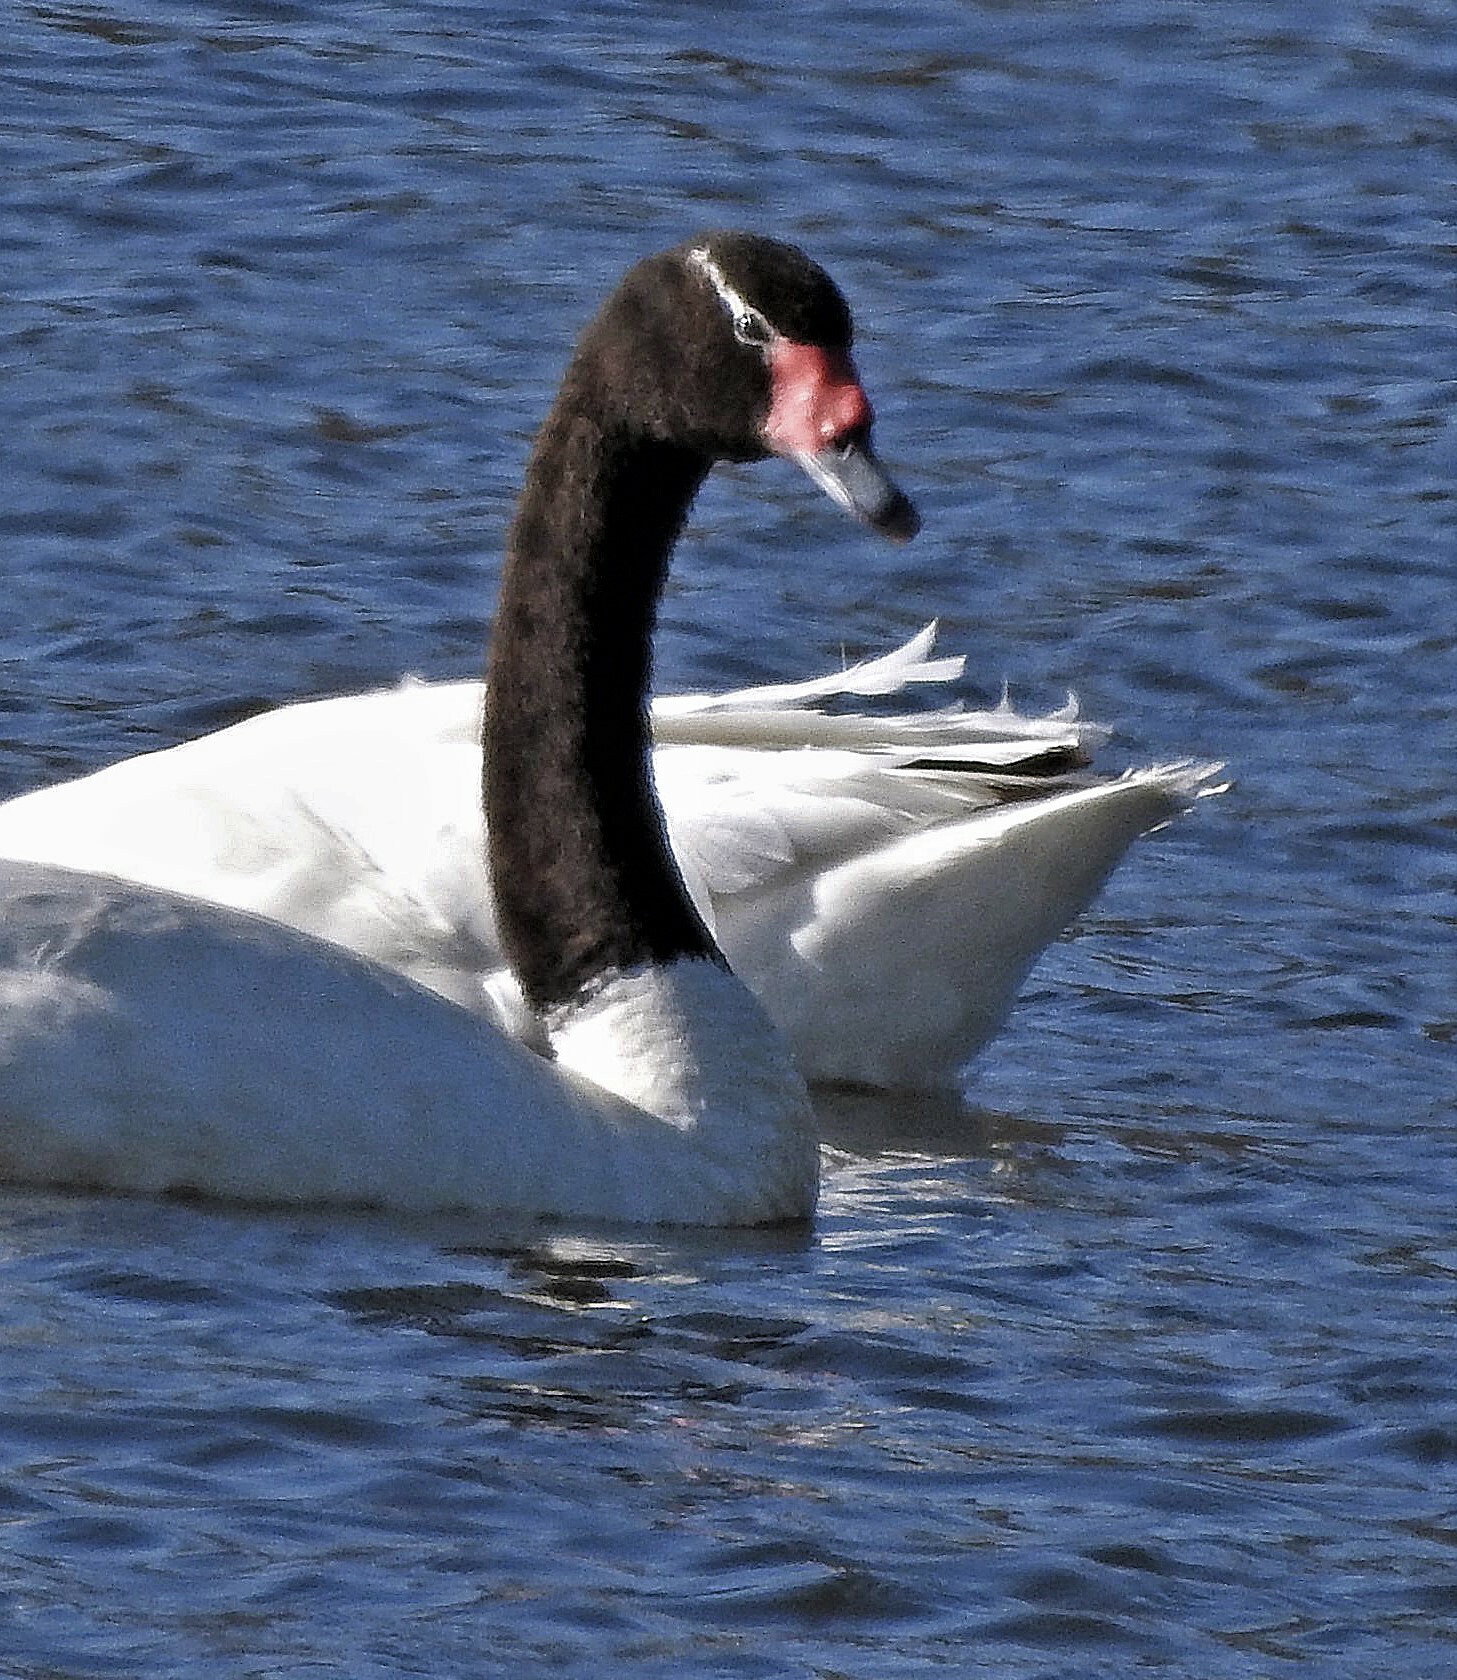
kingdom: Animalia
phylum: Chordata
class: Aves
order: Anseriformes
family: Anatidae
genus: Cygnus
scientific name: Cygnus melancoryphus
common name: Black-necked swan
